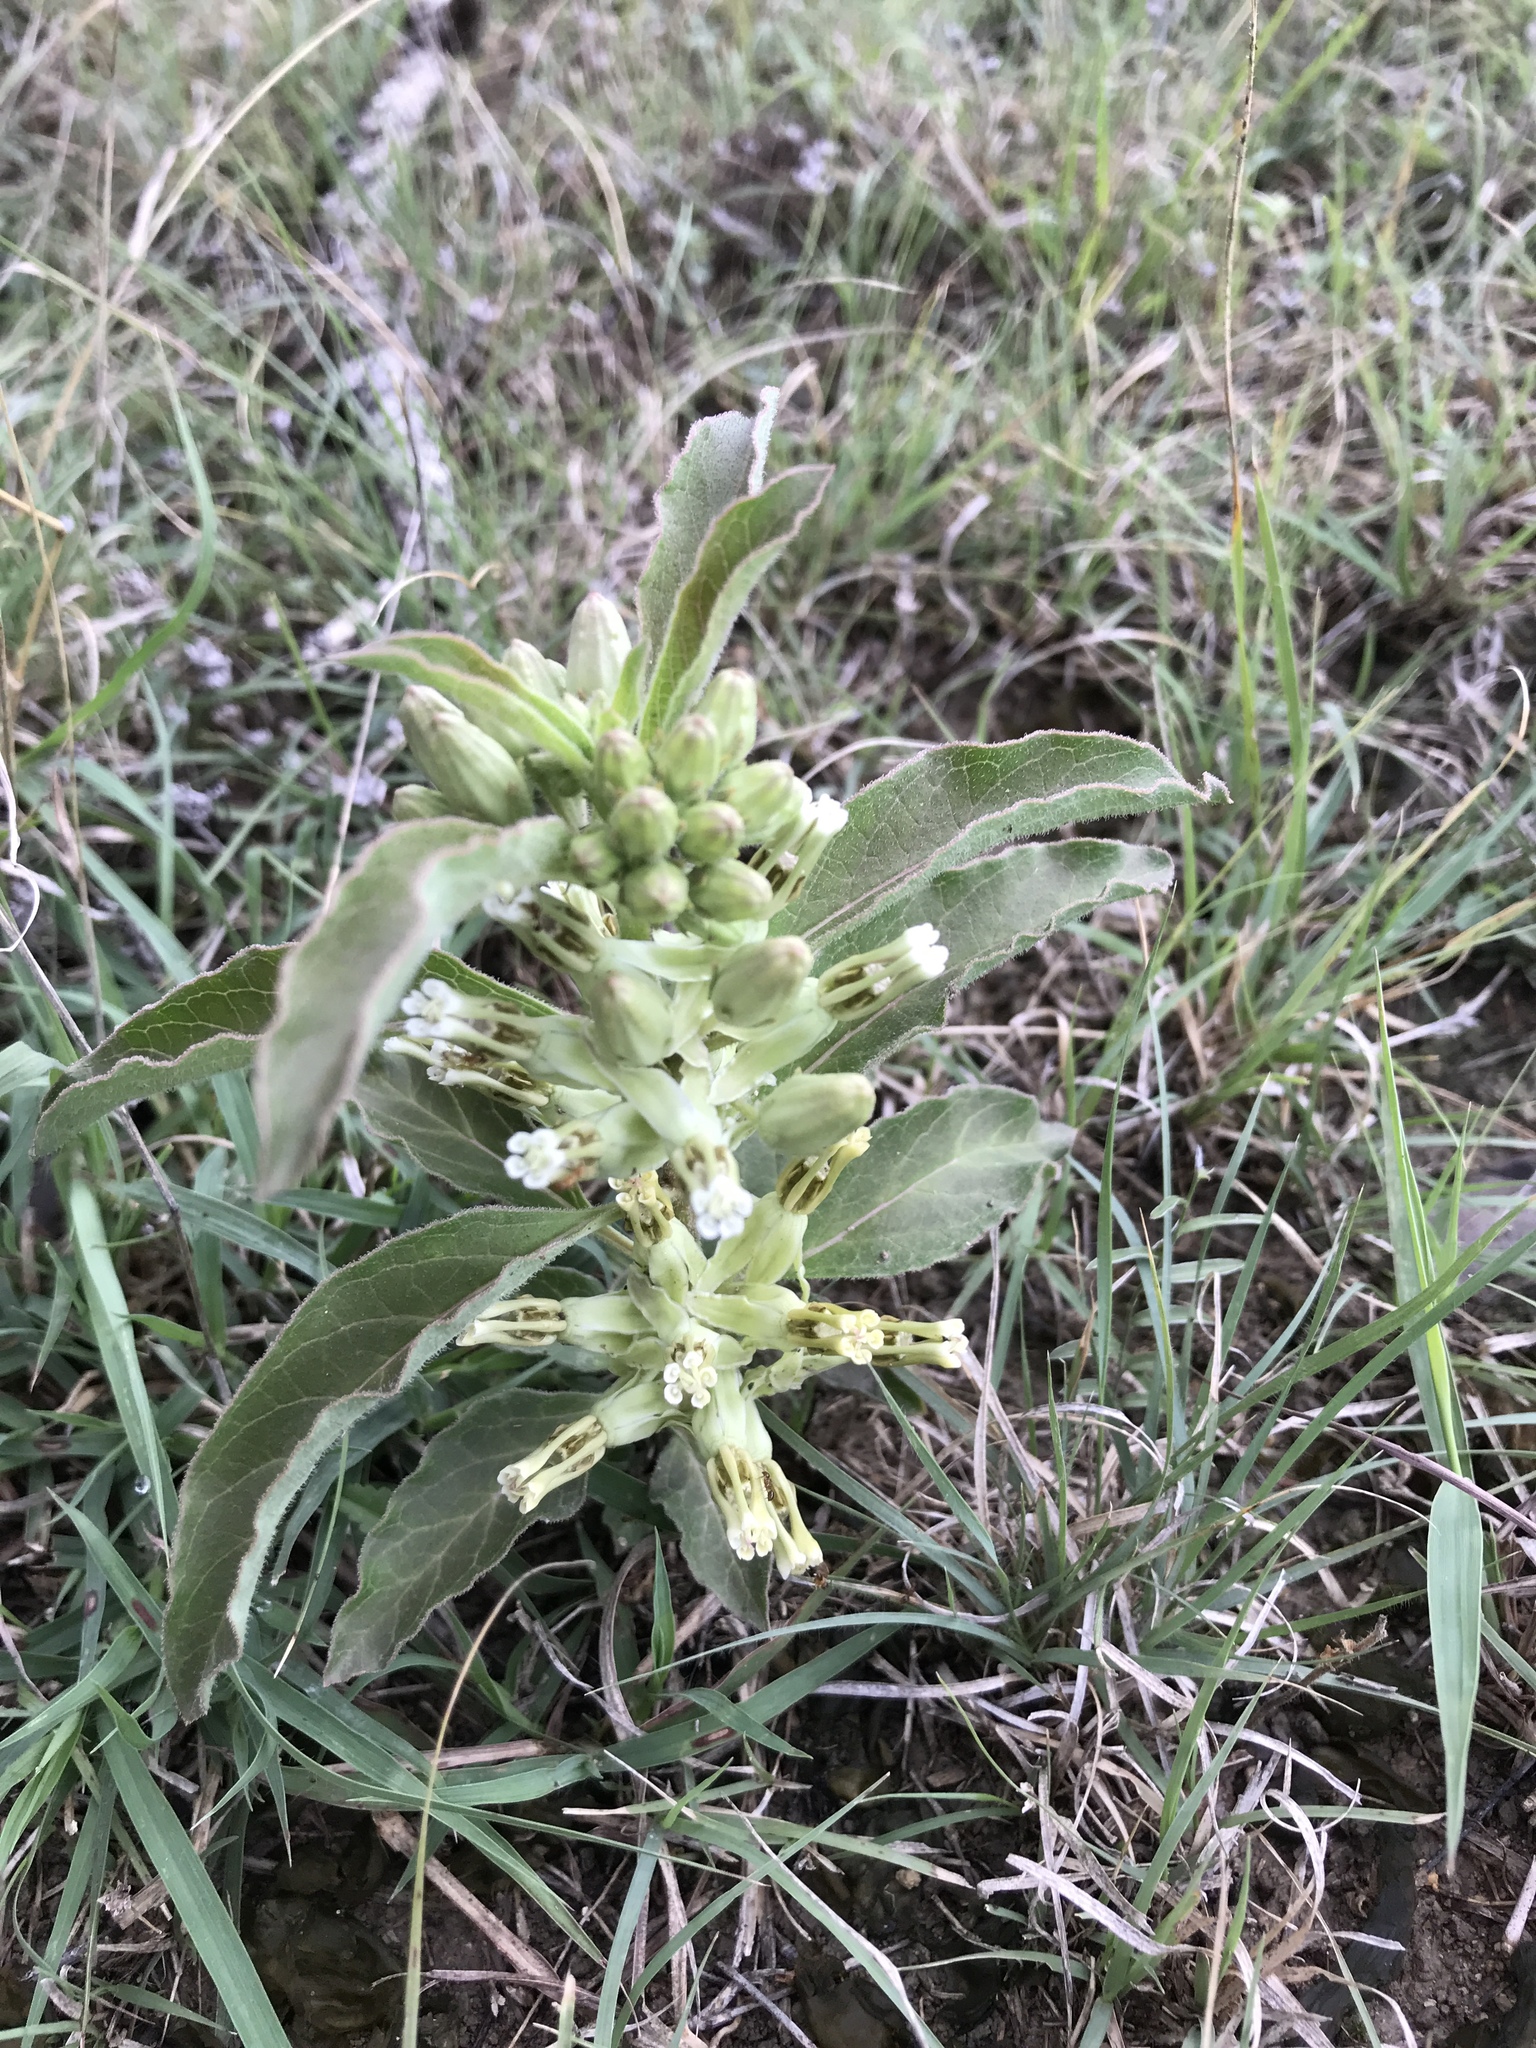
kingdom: Plantae
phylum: Tracheophyta
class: Magnoliopsida
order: Gentianales
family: Apocynaceae
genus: Asclepias
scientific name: Asclepias oenotheroides
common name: Zizotes milkweed
